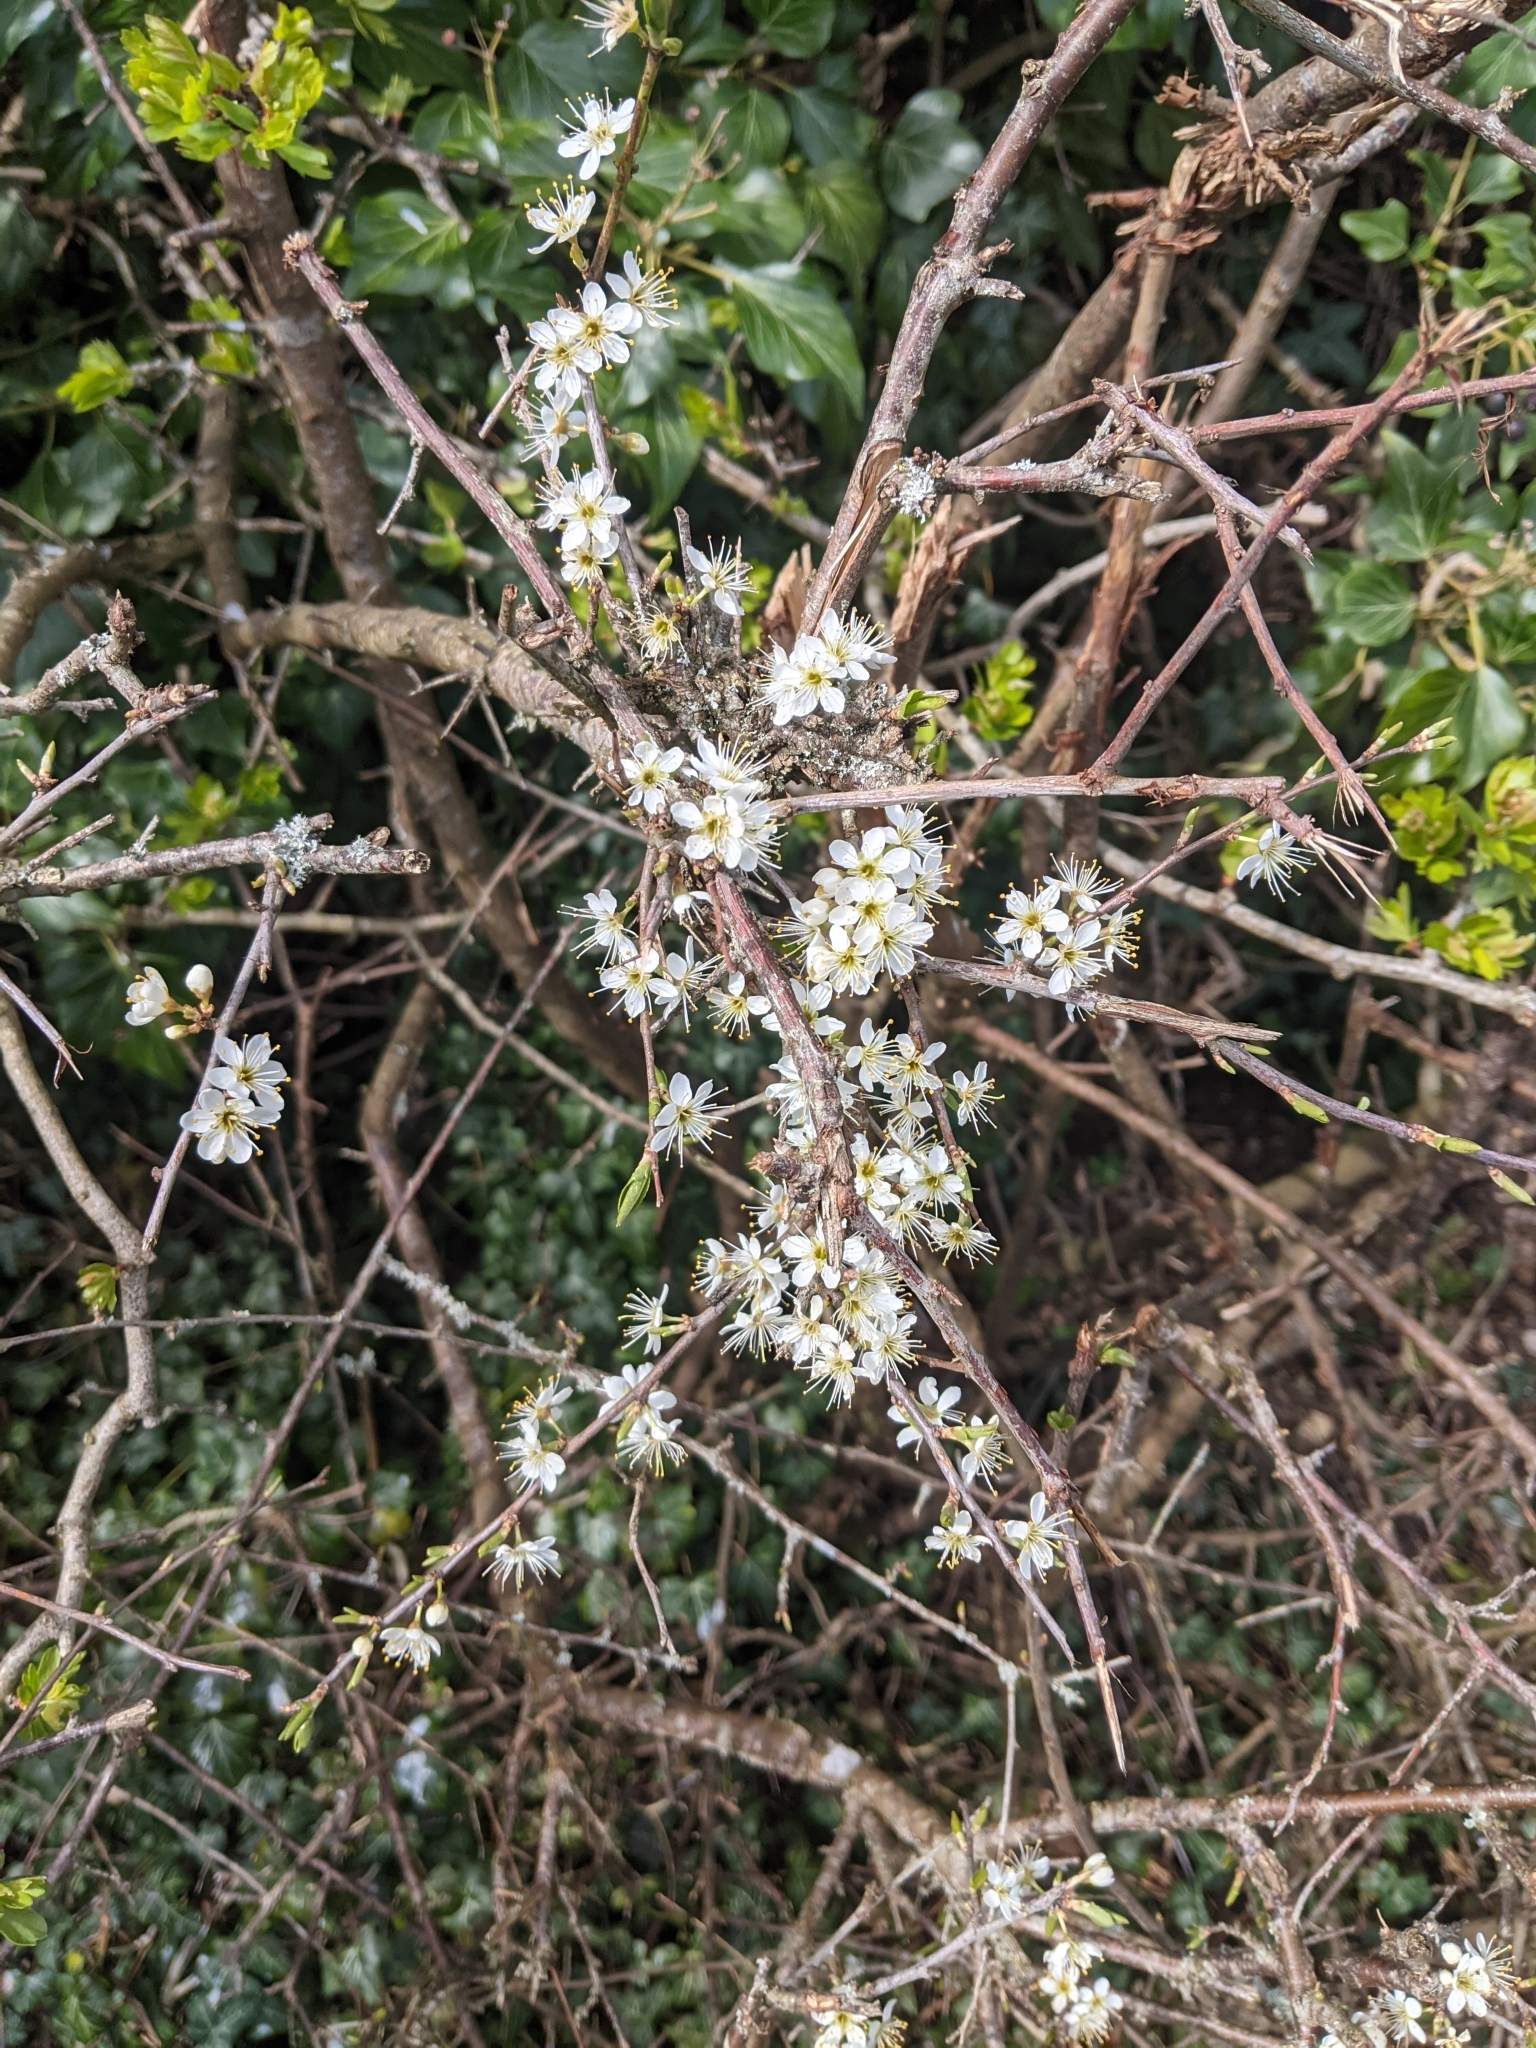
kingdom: Plantae
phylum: Tracheophyta
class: Magnoliopsida
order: Rosales
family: Rosaceae
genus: Prunus
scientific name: Prunus spinosa
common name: Blackthorn
